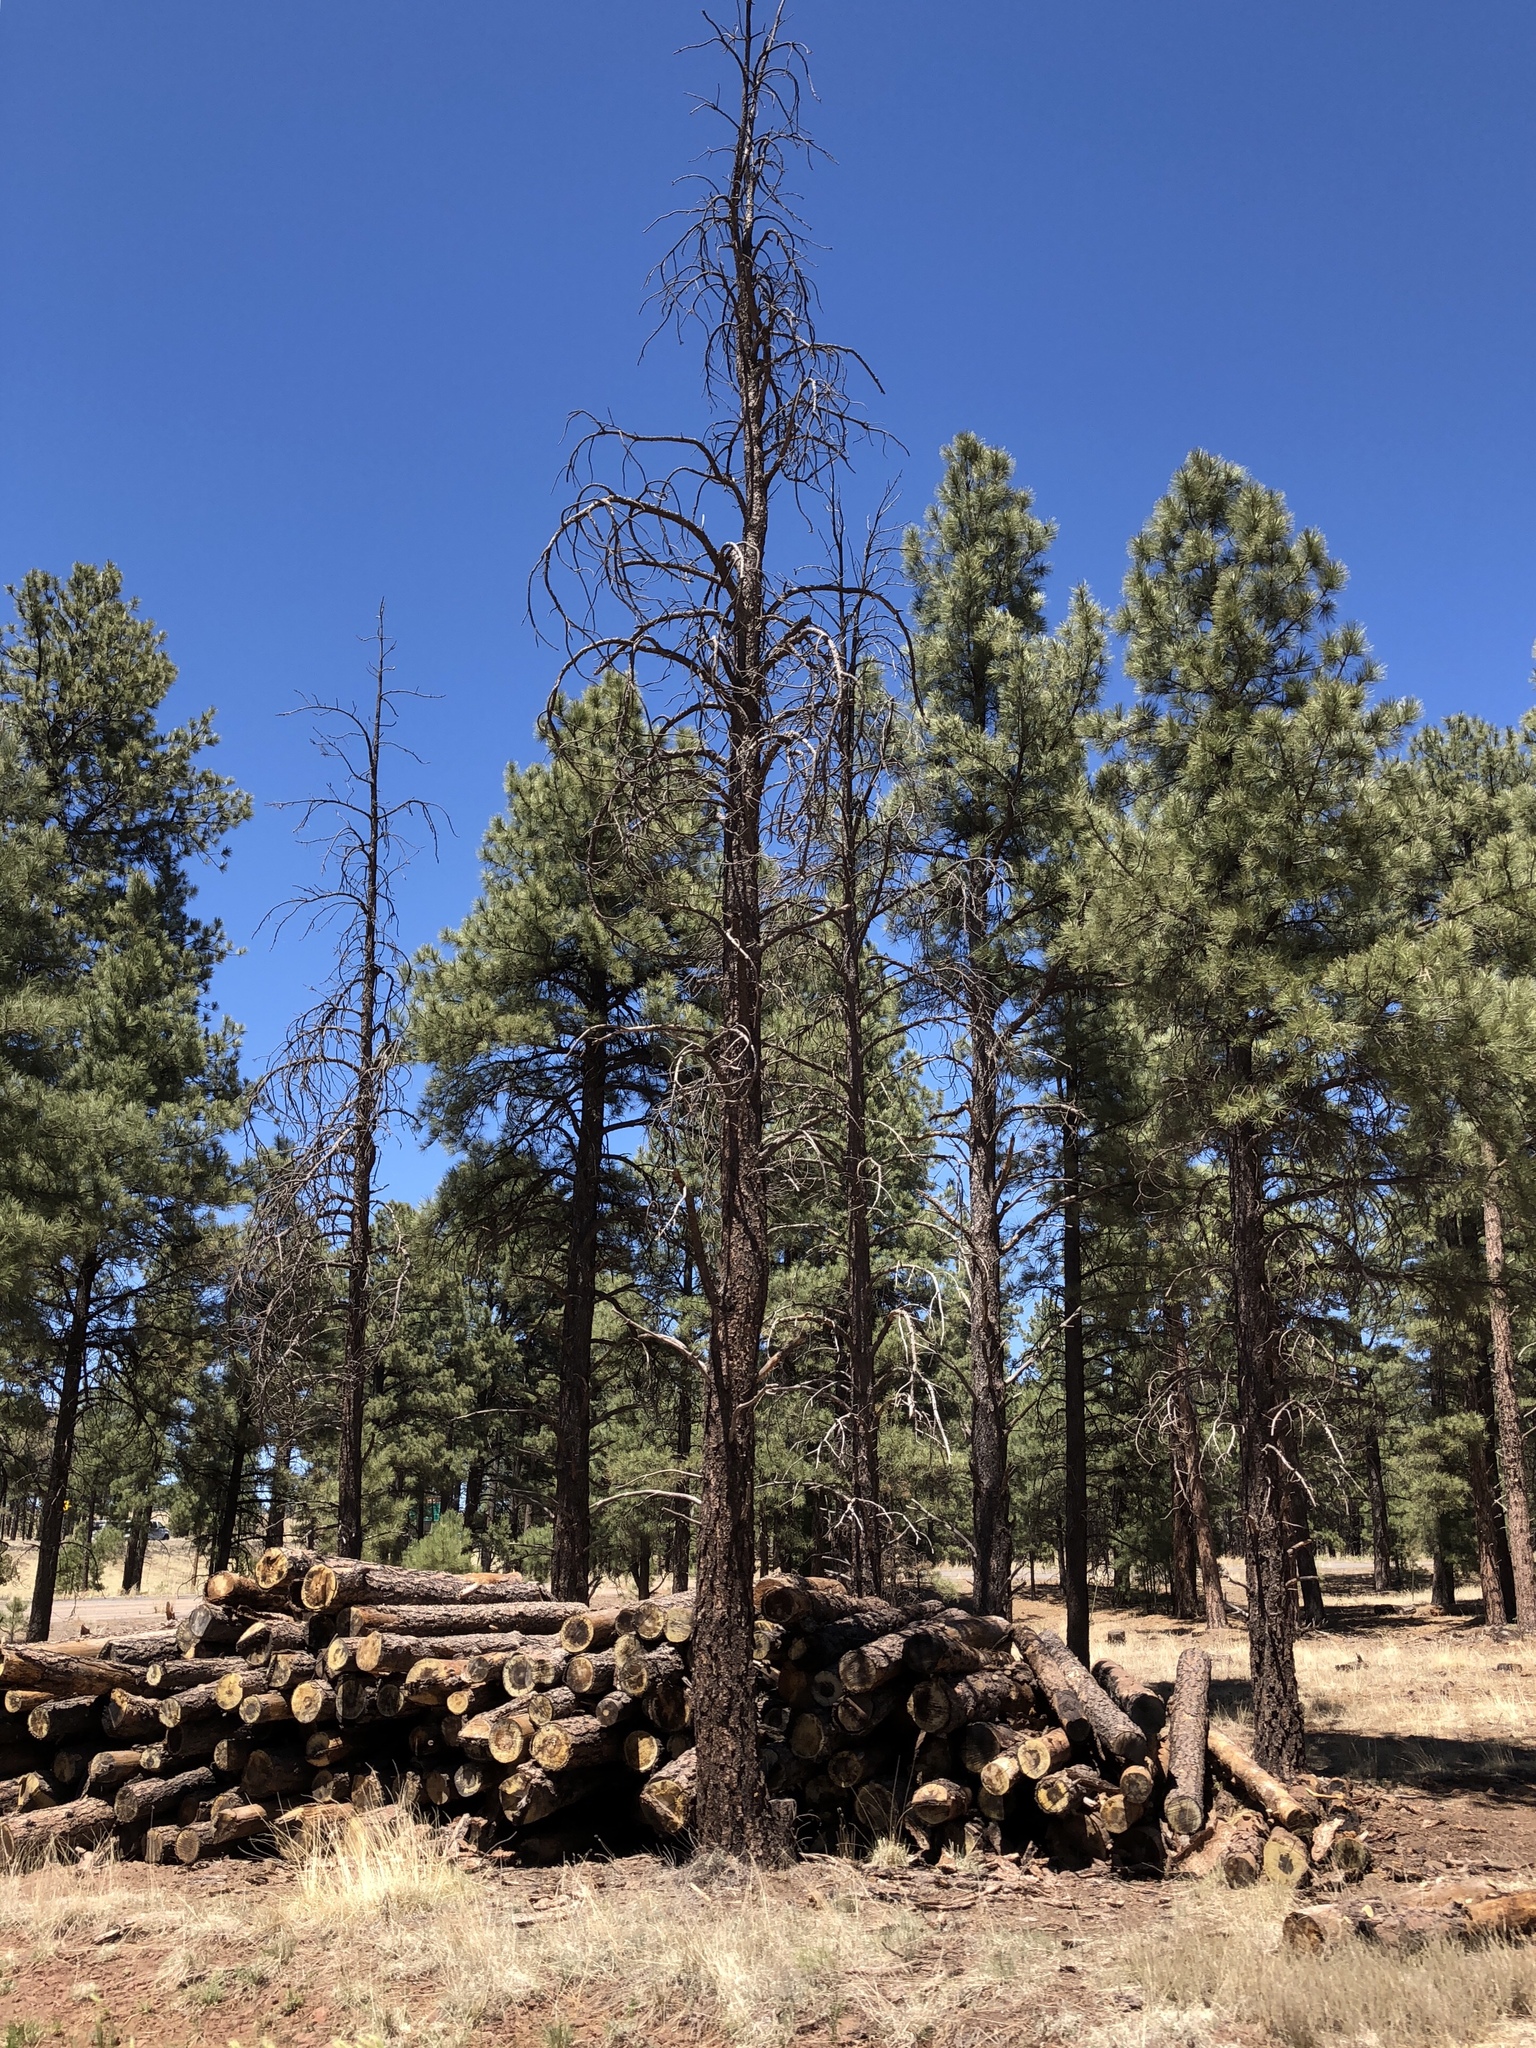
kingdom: Plantae
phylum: Tracheophyta
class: Pinopsida
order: Pinales
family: Pinaceae
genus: Pinus
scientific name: Pinus ponderosa
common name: Western yellow-pine
